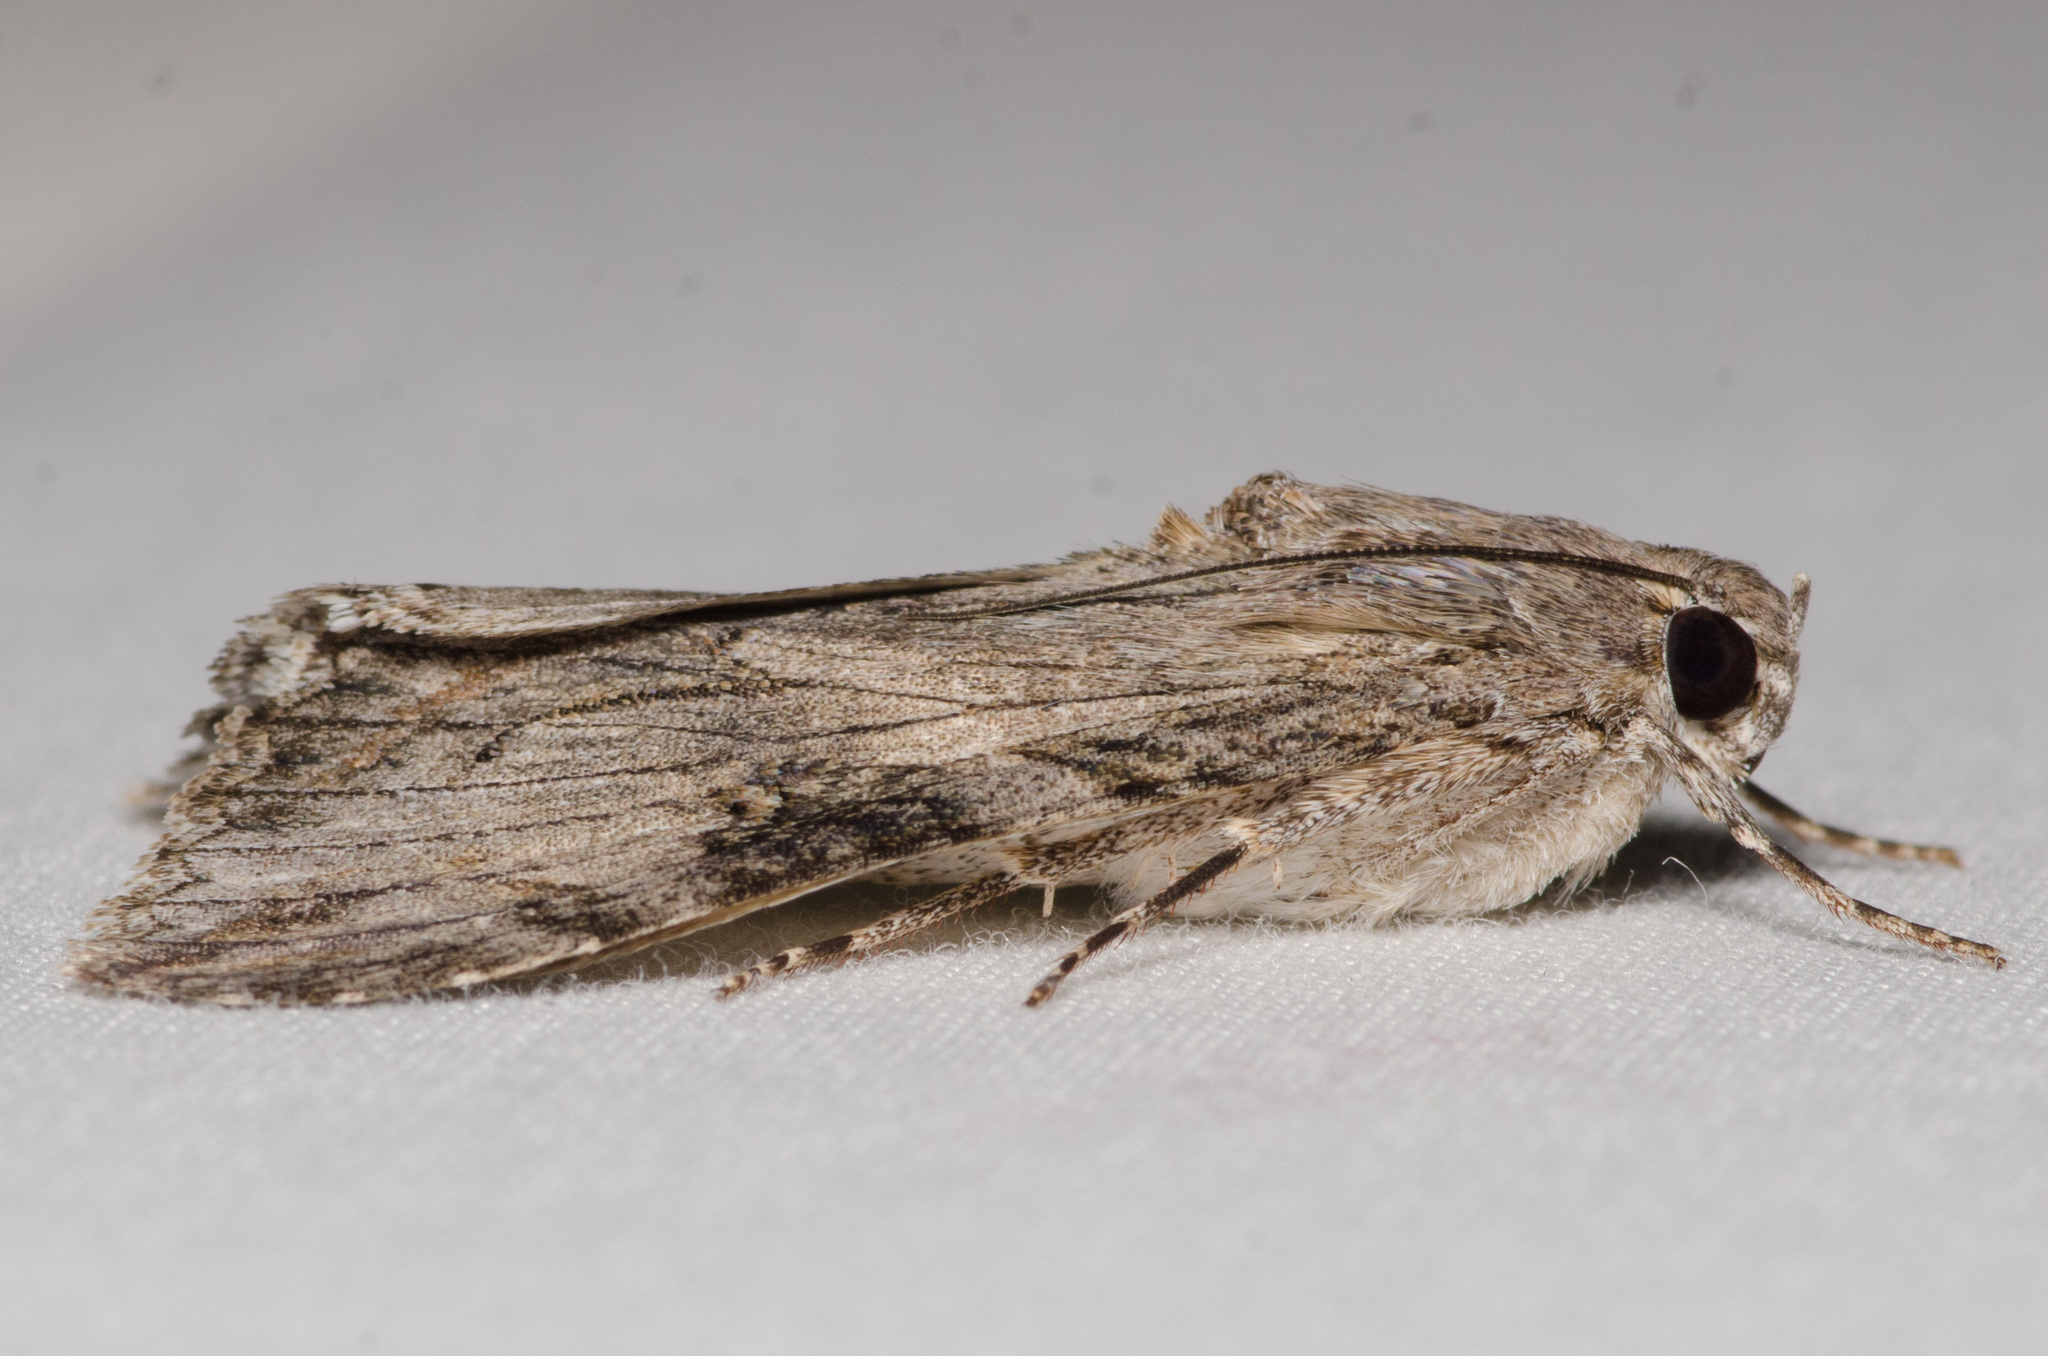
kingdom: Animalia
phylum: Arthropoda
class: Insecta
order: Lepidoptera
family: Erebidae
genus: Melipotis
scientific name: Melipotis jucunda
